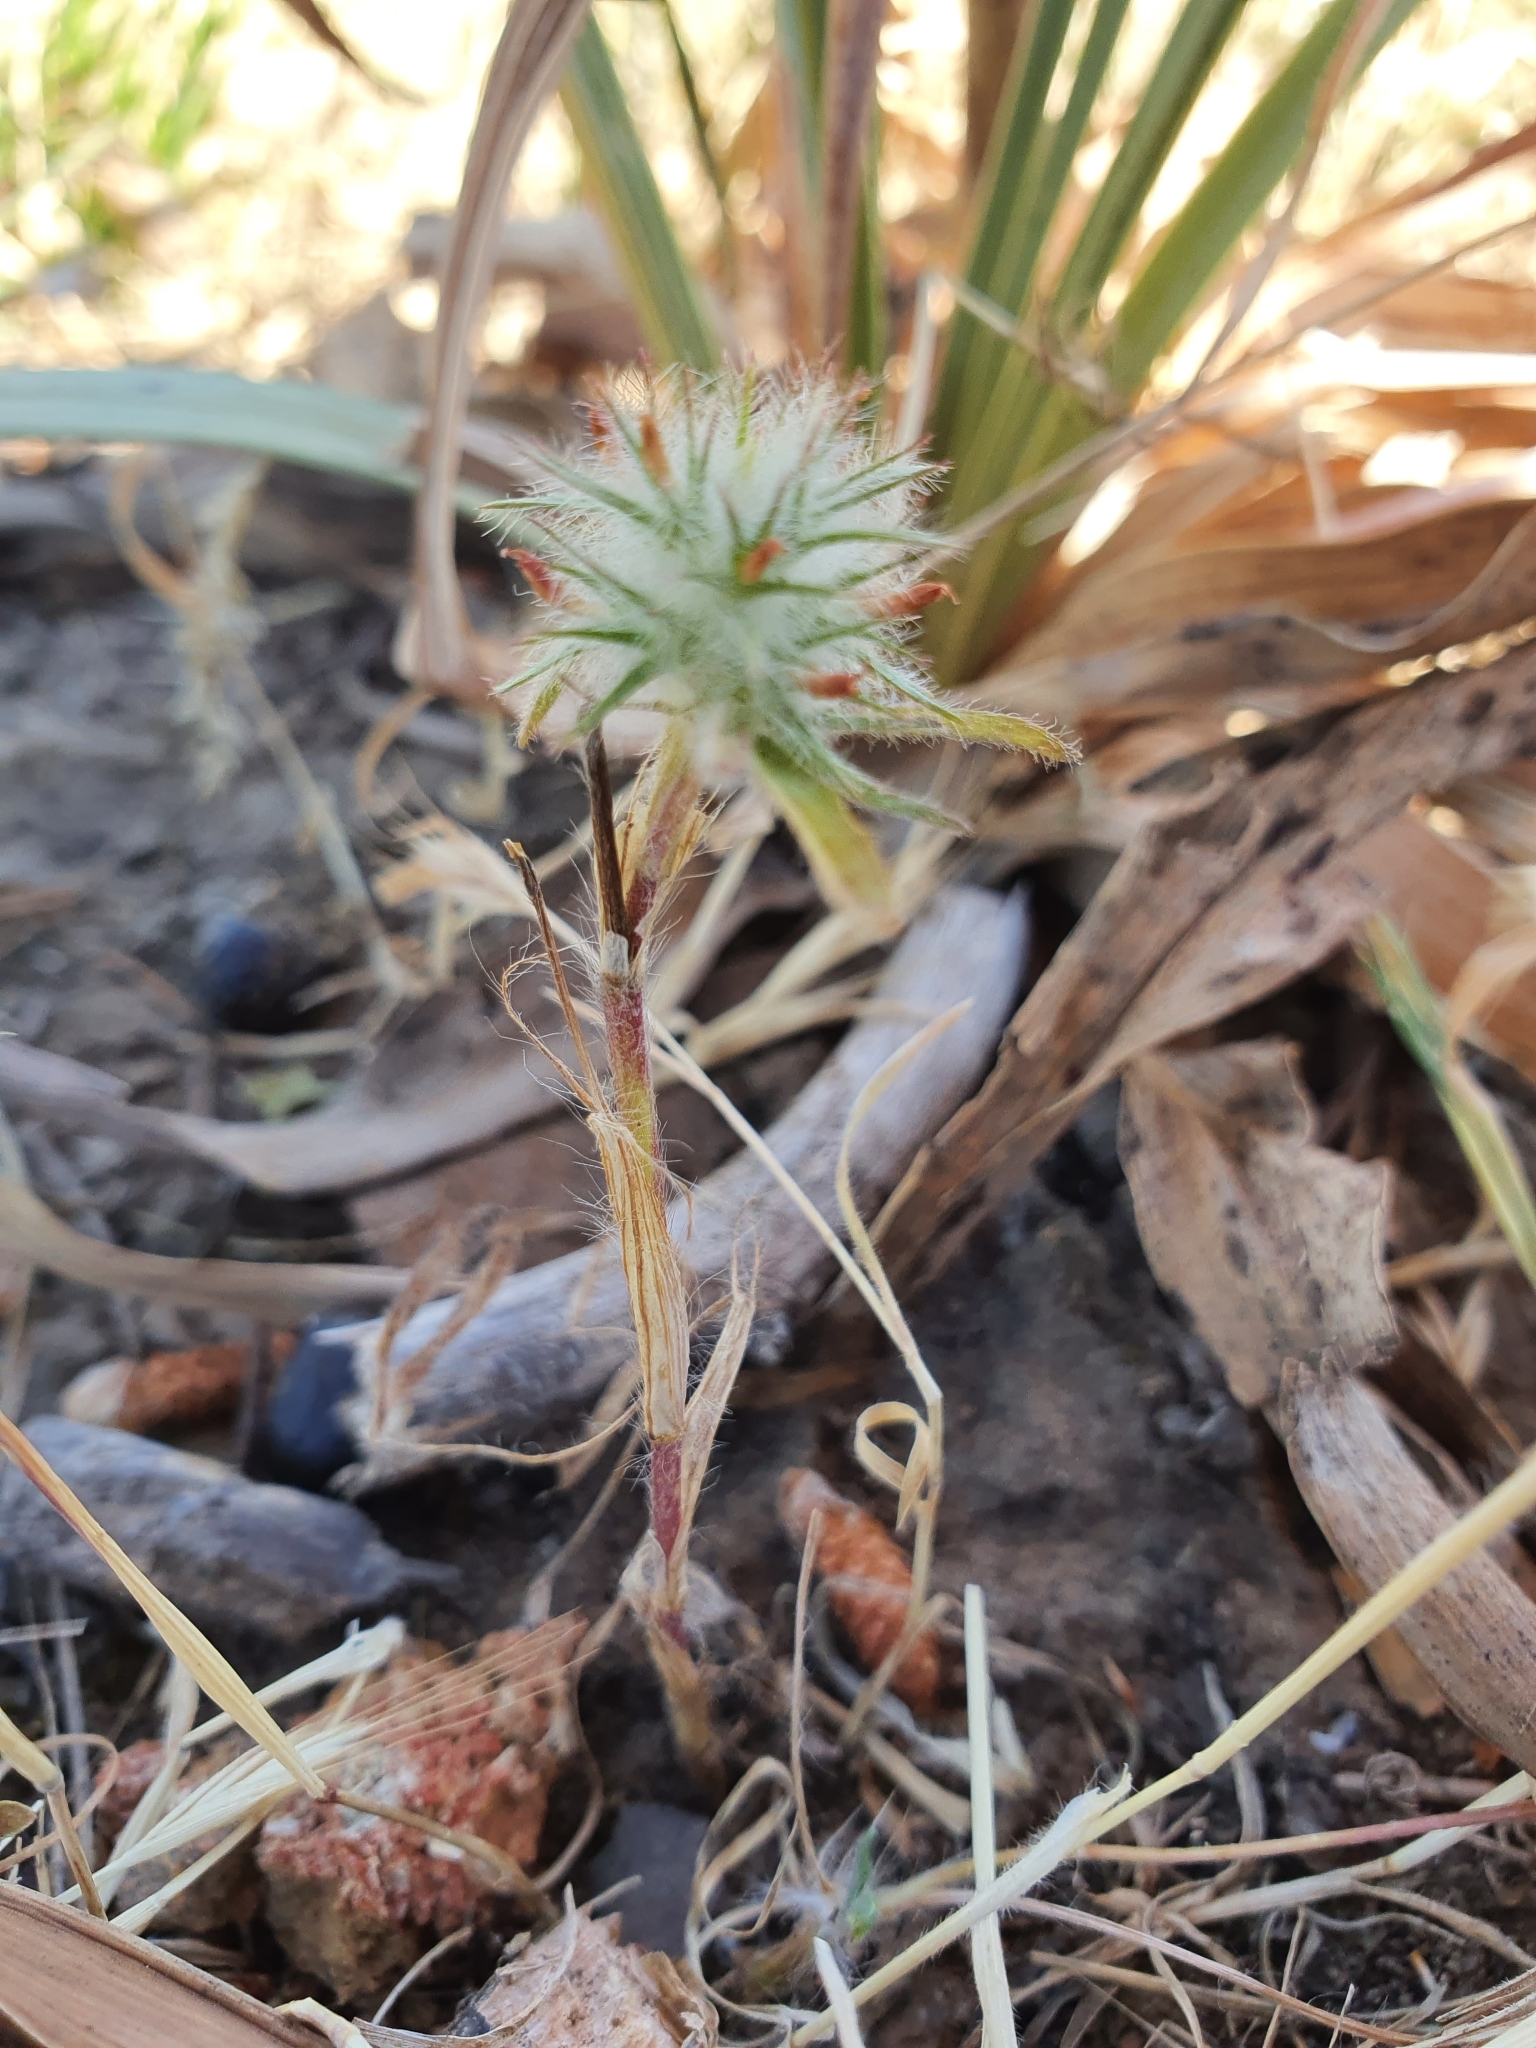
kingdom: Plantae
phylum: Tracheophyta
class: Magnoliopsida
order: Fabales
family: Fabaceae
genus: Trifolium
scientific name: Trifolium angustifolium
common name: Narrow clover
